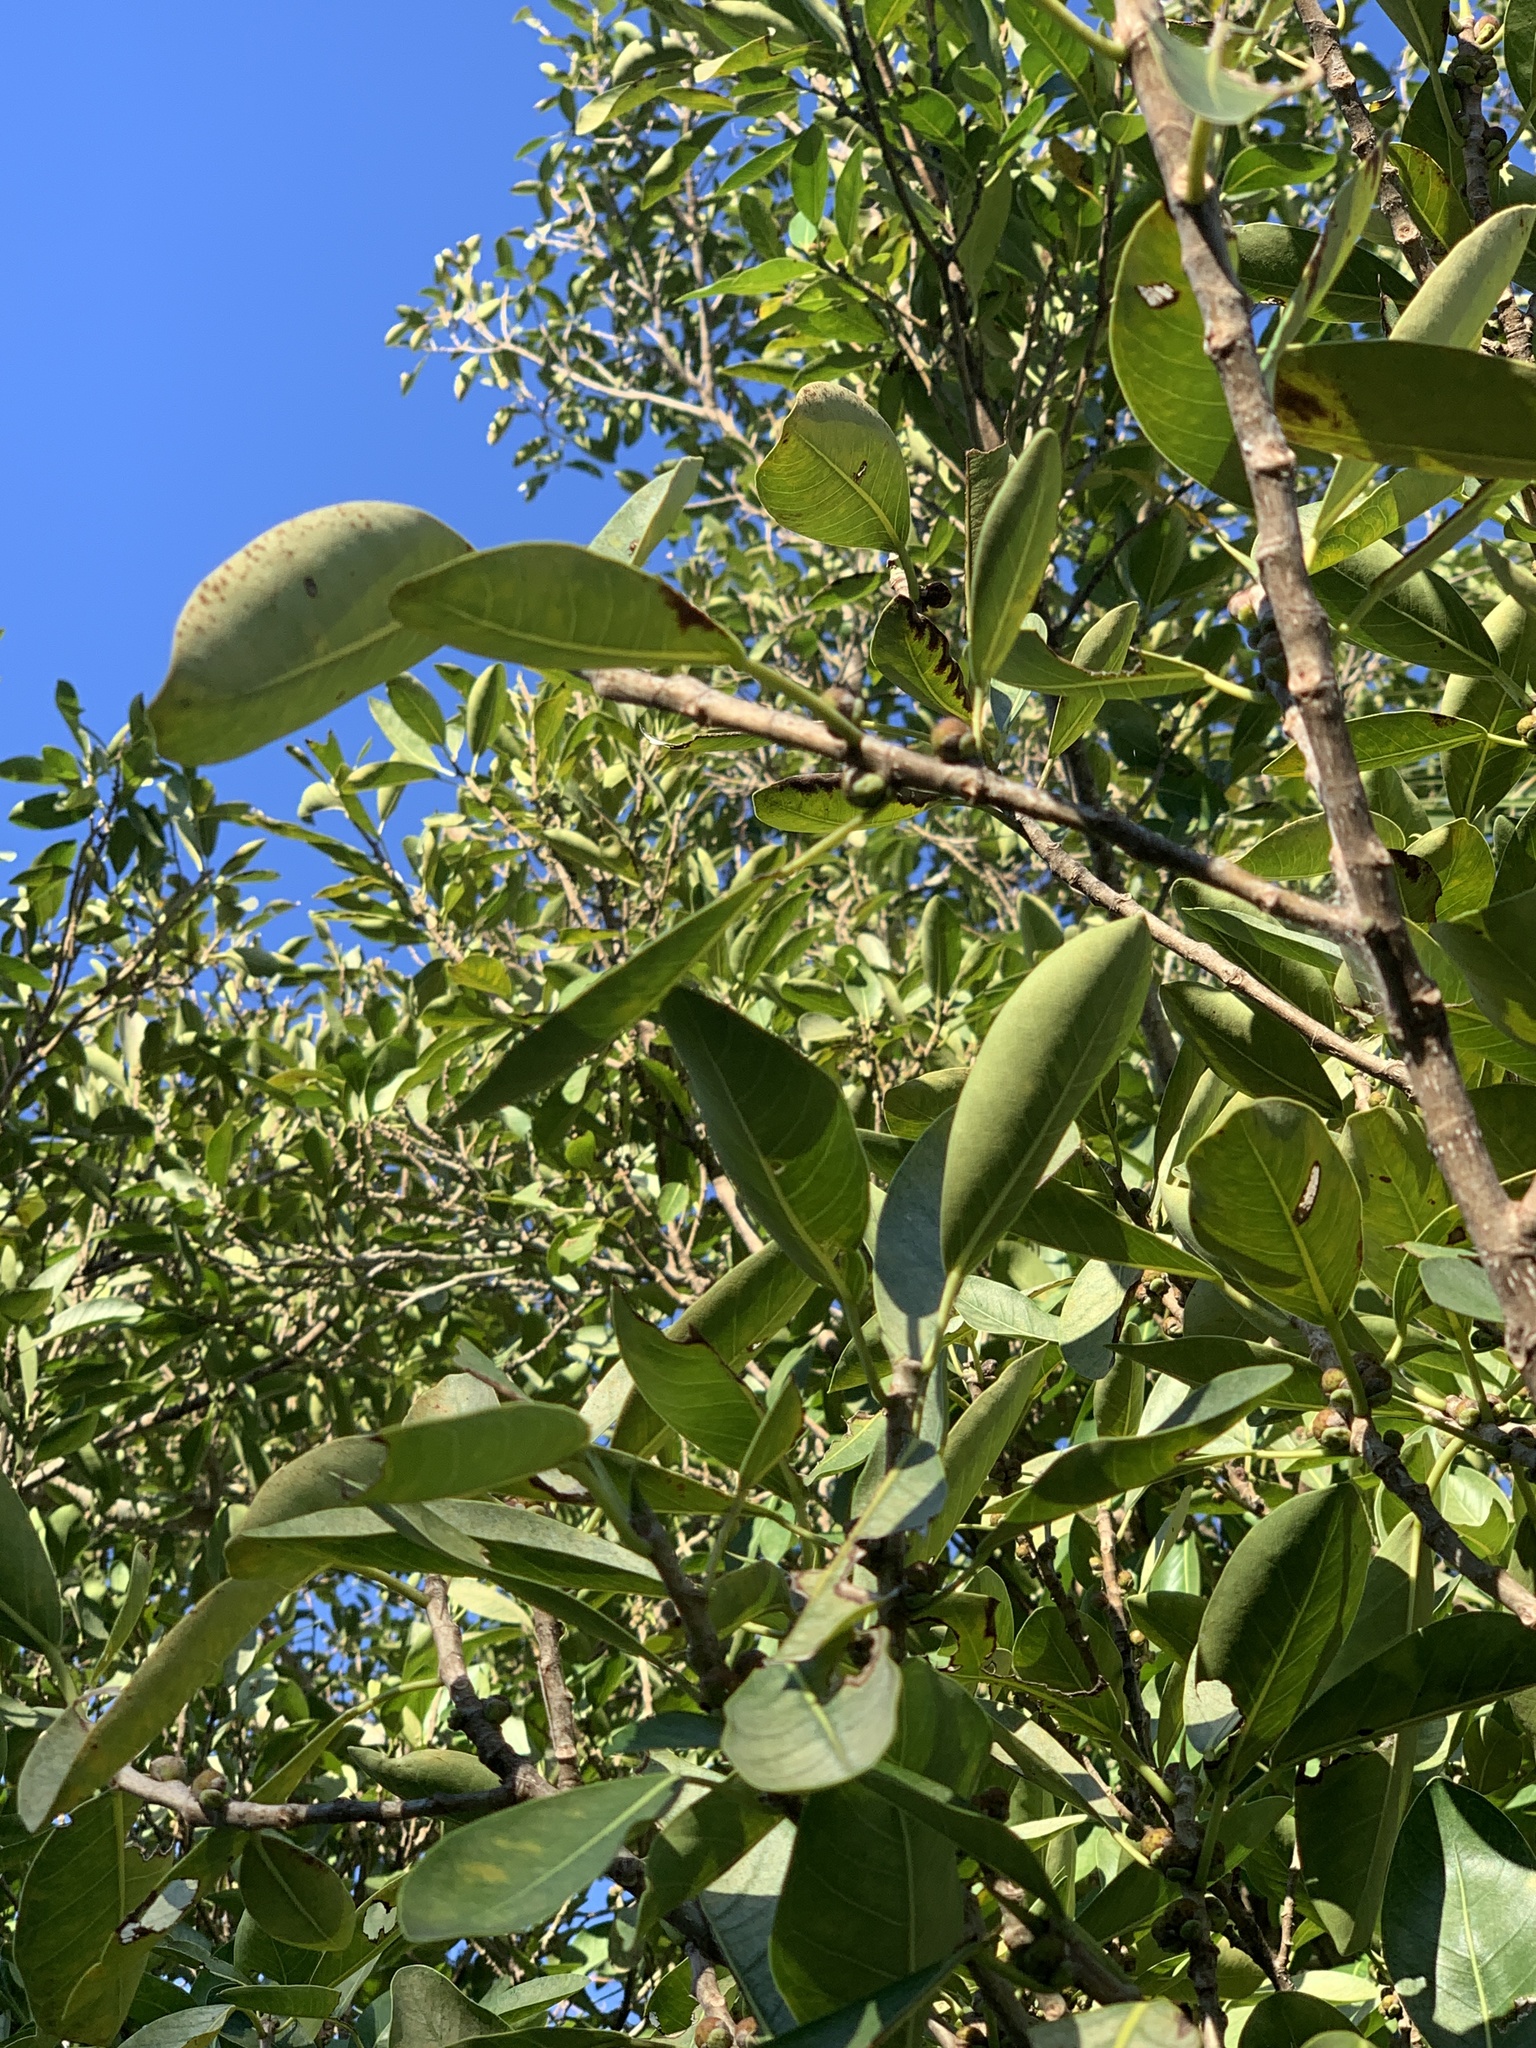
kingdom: Plantae
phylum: Tracheophyta
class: Magnoliopsida
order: Rosales
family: Moraceae
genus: Ficus
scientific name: Ficus aurea
